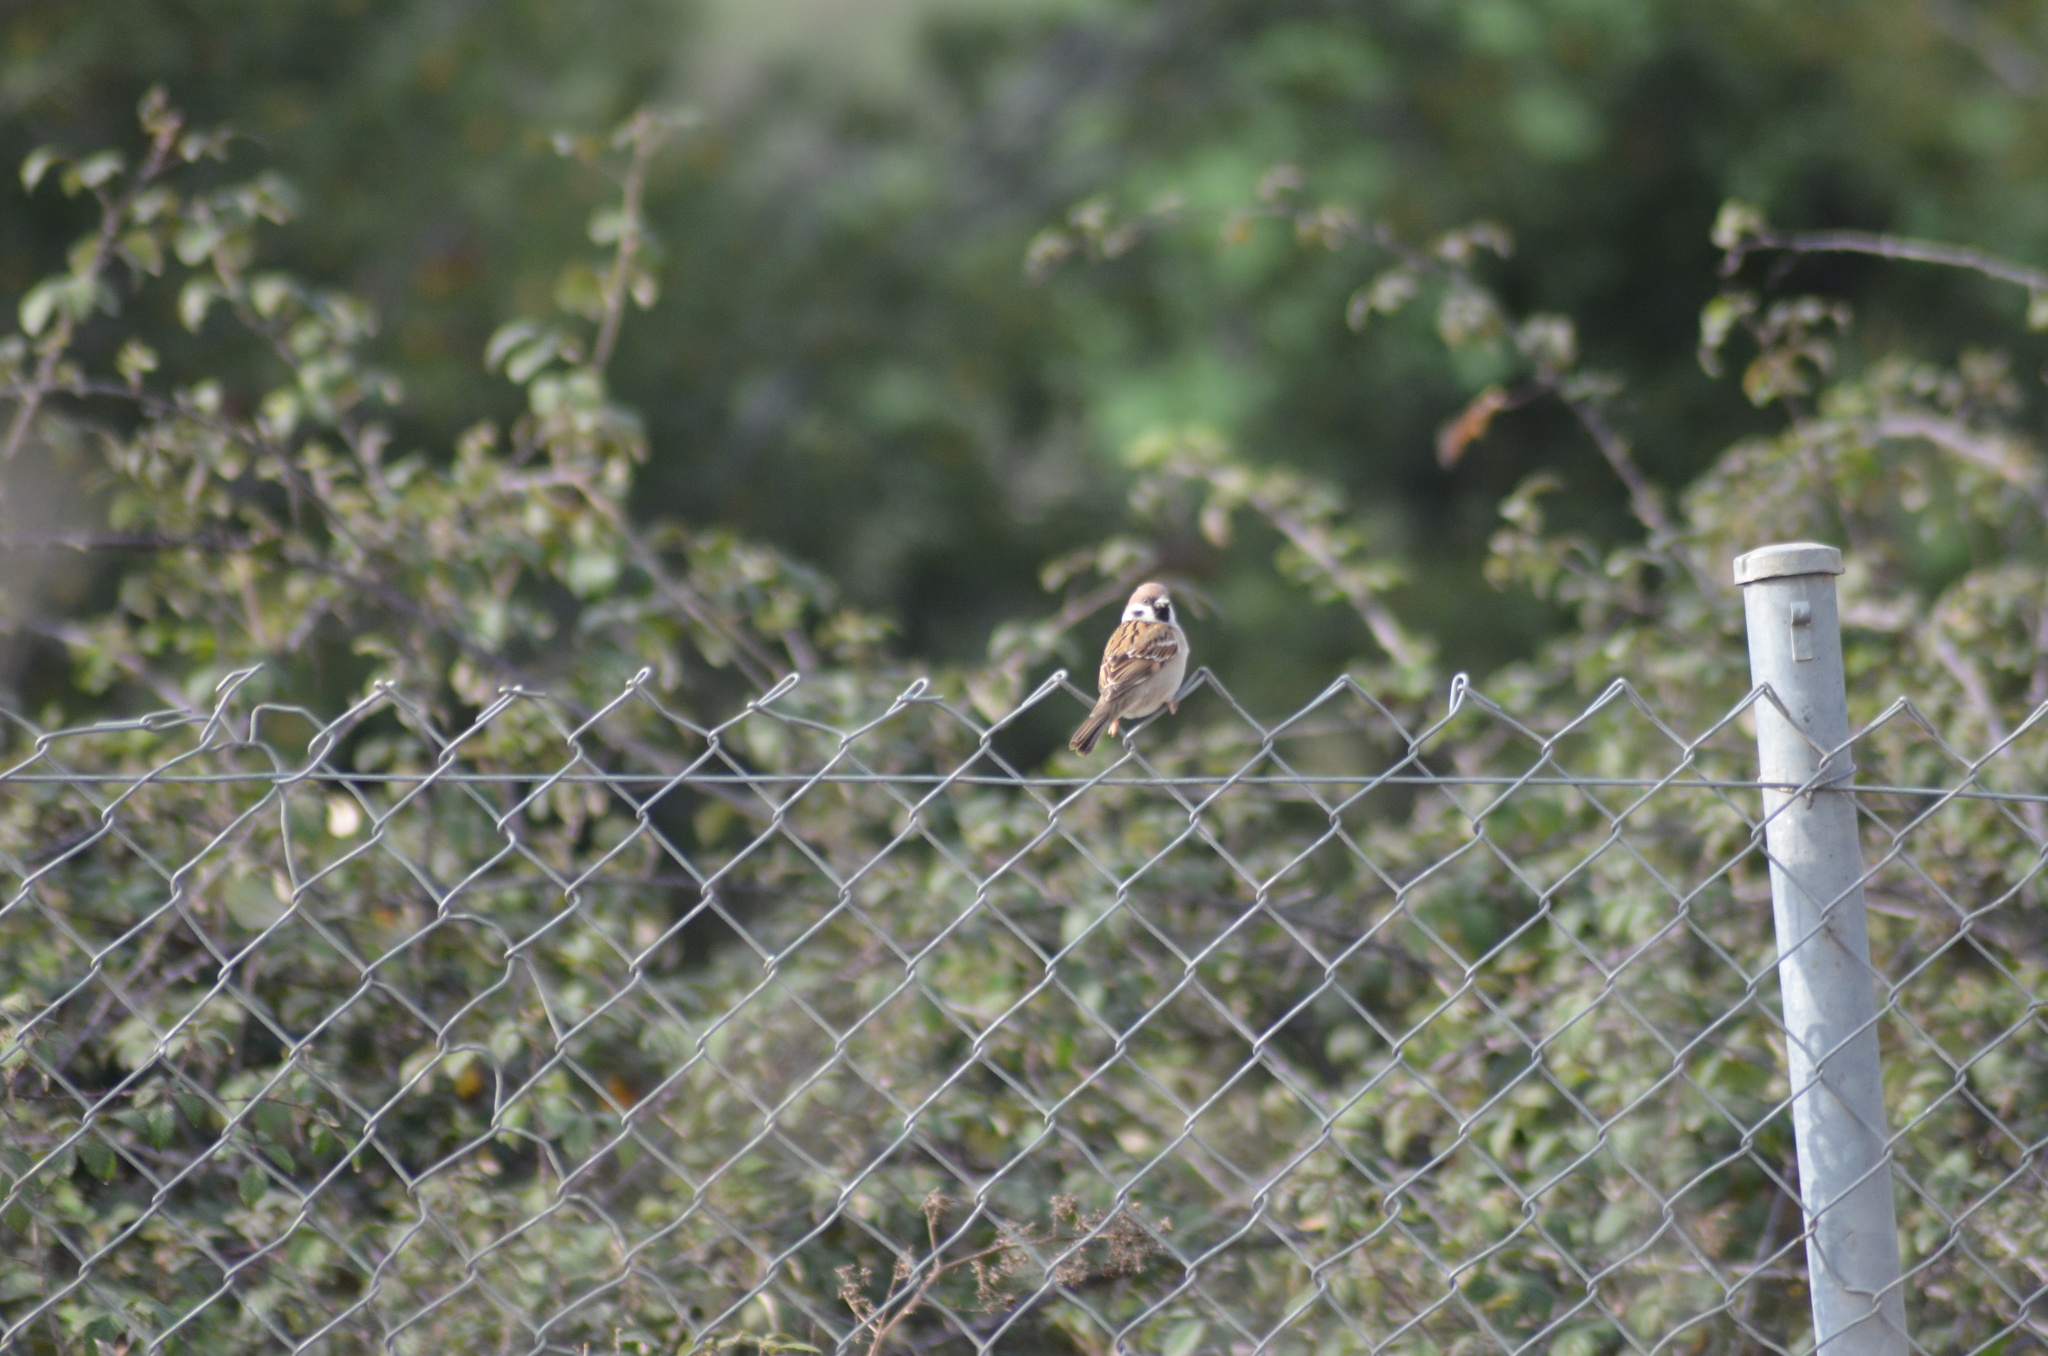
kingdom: Animalia
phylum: Chordata
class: Aves
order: Passeriformes
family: Passeridae
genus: Passer
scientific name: Passer montanus
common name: Eurasian tree sparrow
